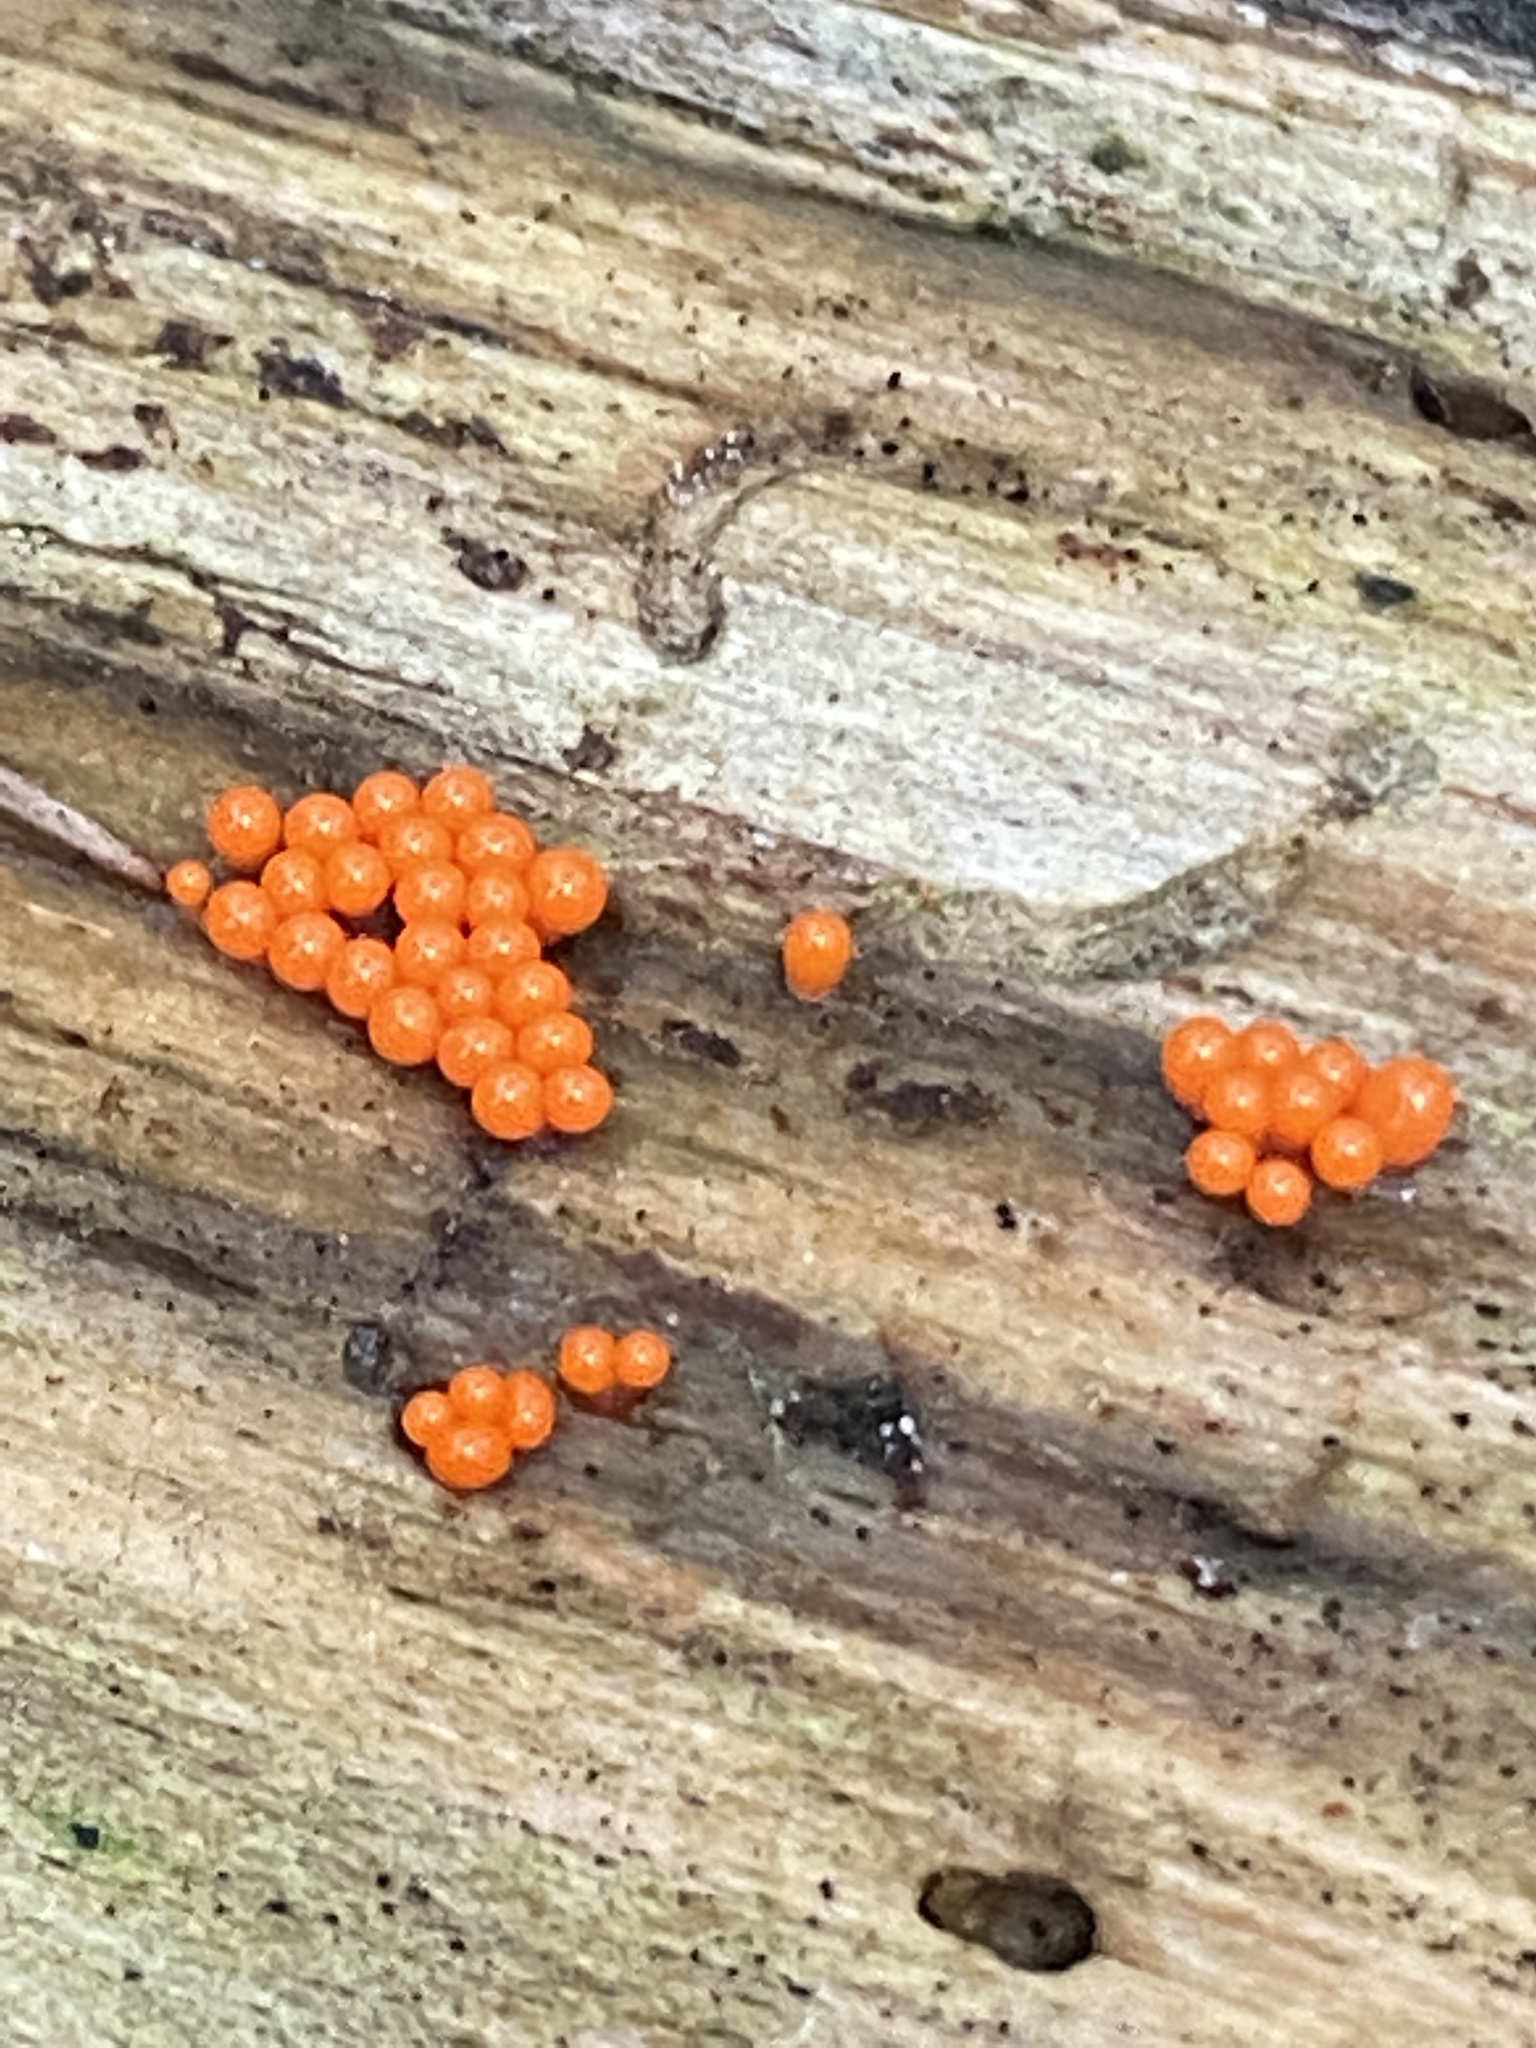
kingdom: Protozoa
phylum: Mycetozoa
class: Myxomycetes
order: Trichiales
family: Arcyriaceae
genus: Hemitrichia
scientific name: Hemitrichia decipiens
